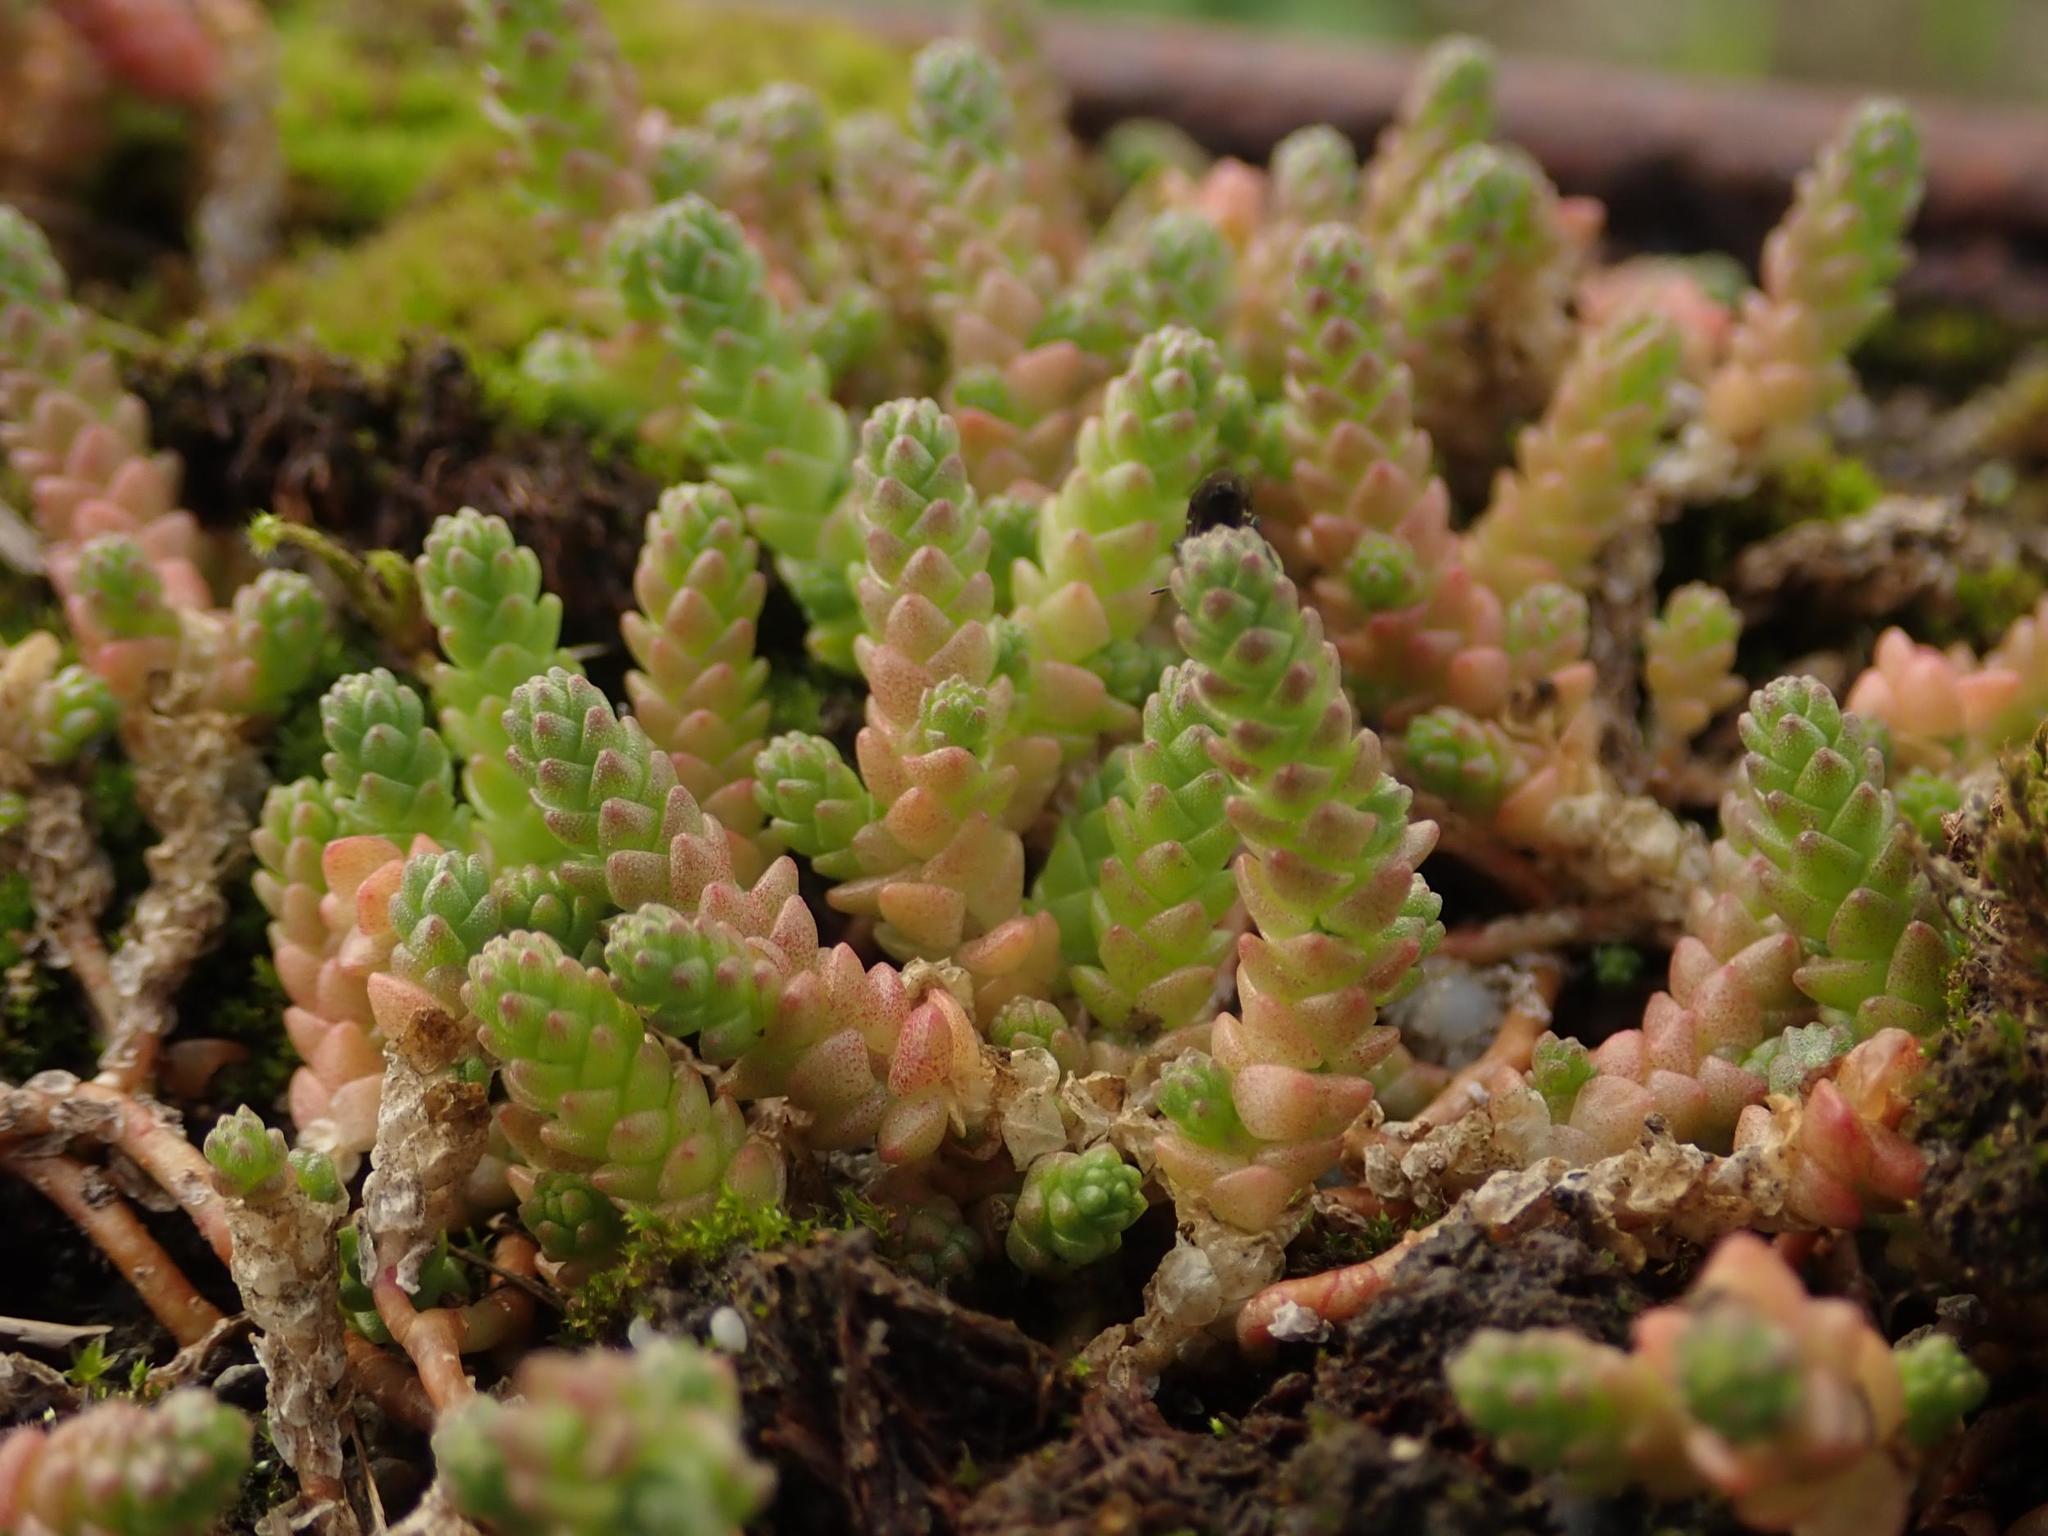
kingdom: Plantae
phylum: Tracheophyta
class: Magnoliopsida
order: Saxifragales
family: Crassulaceae
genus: Sedum
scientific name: Sedum acre
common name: Biting stonecrop
